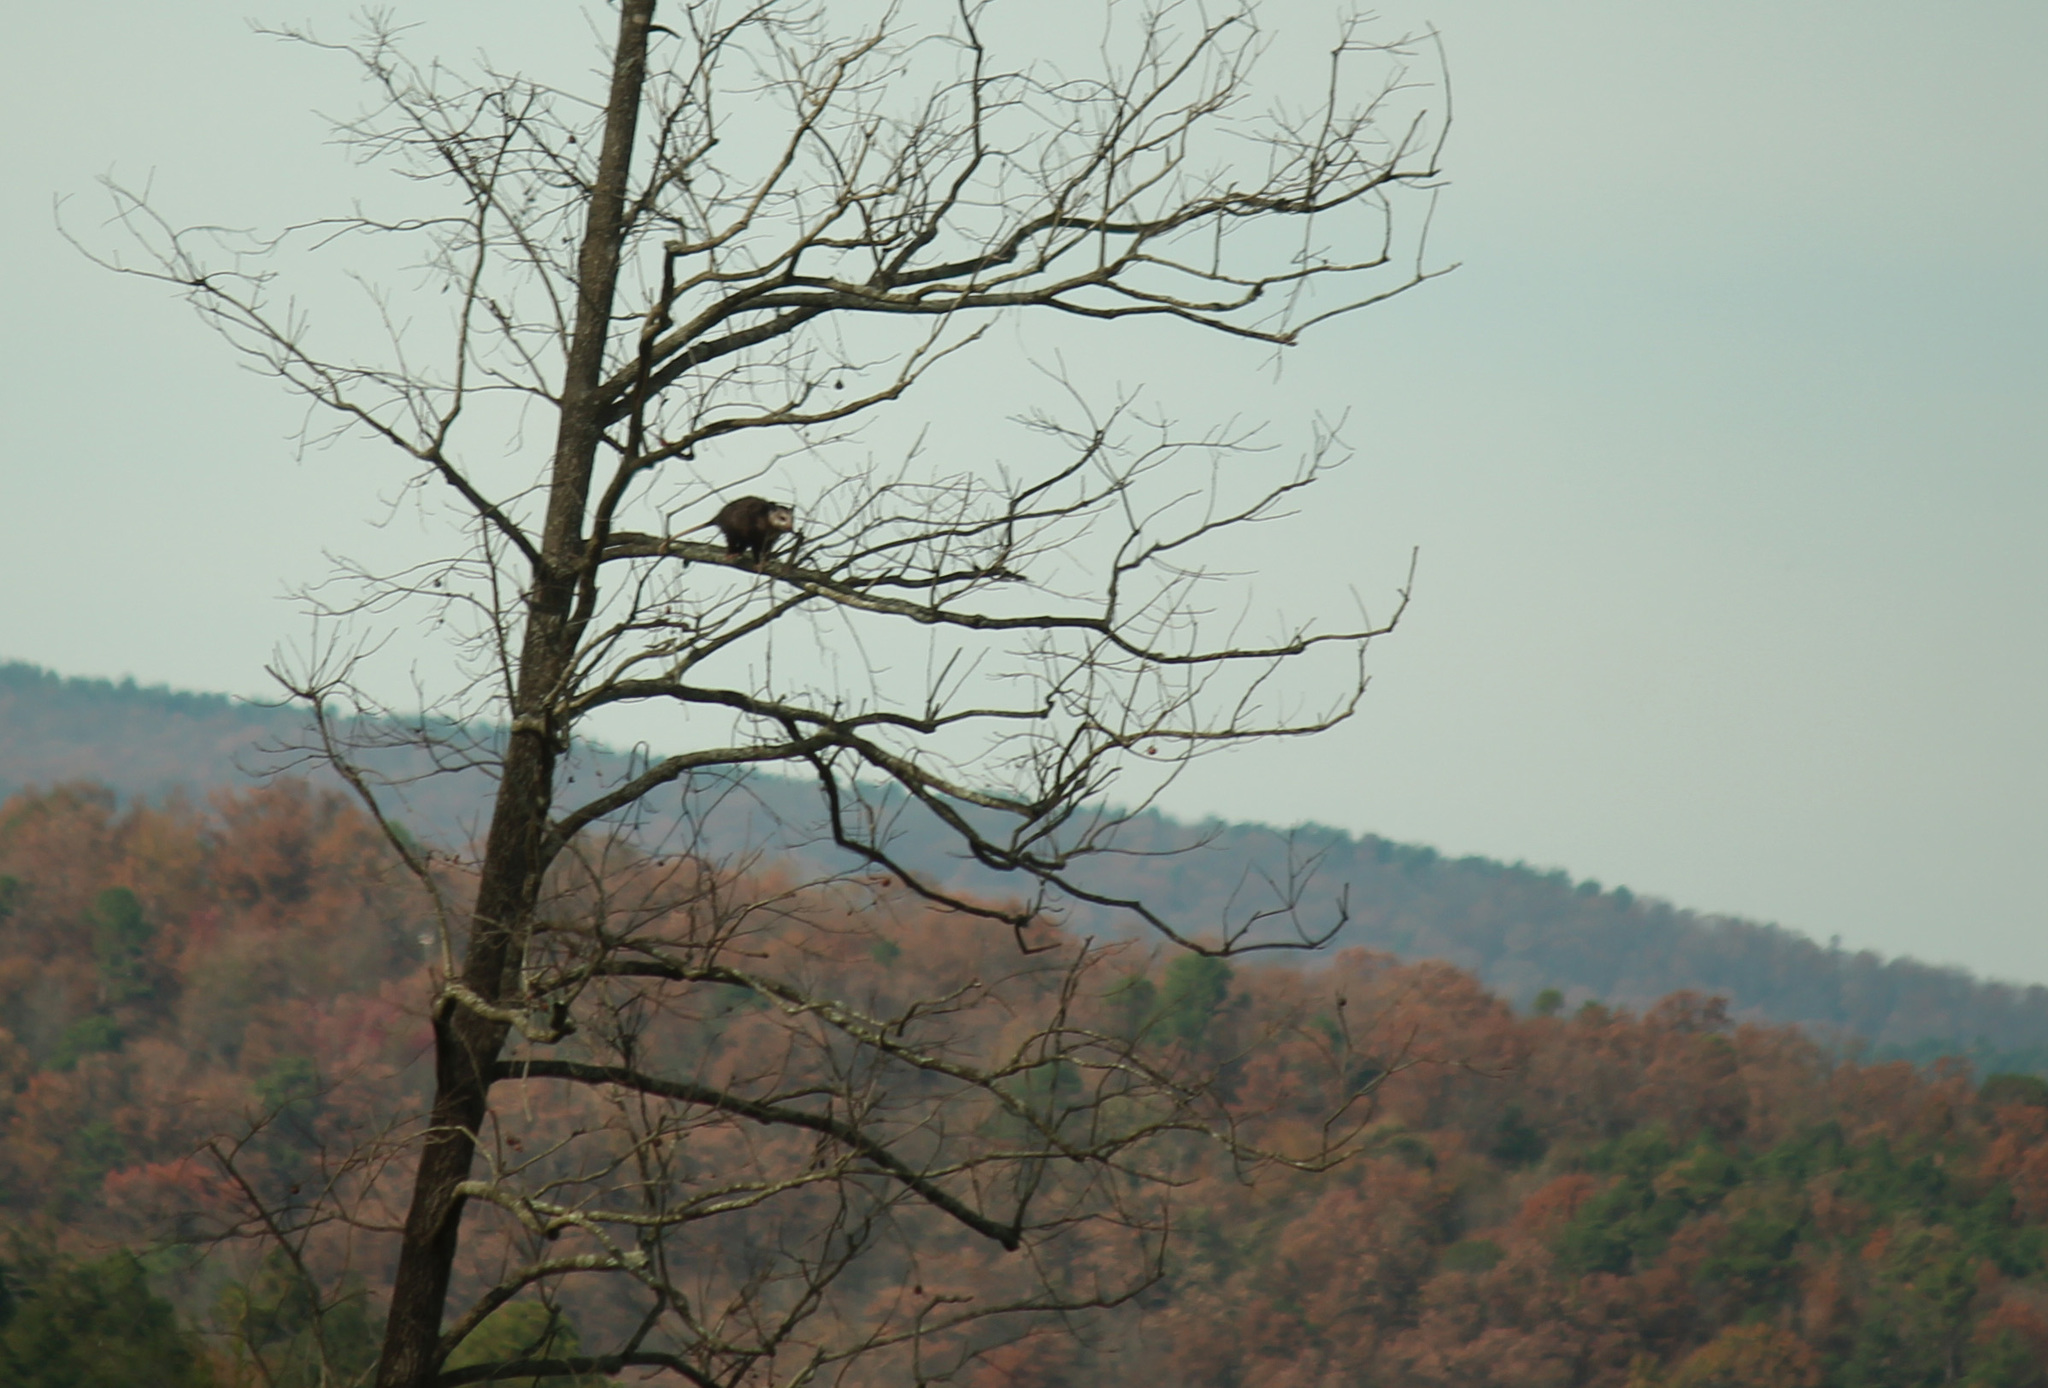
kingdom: Animalia
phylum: Chordata
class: Mammalia
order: Didelphimorphia
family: Didelphidae
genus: Didelphis
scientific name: Didelphis virginiana
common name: Virginia opossum
